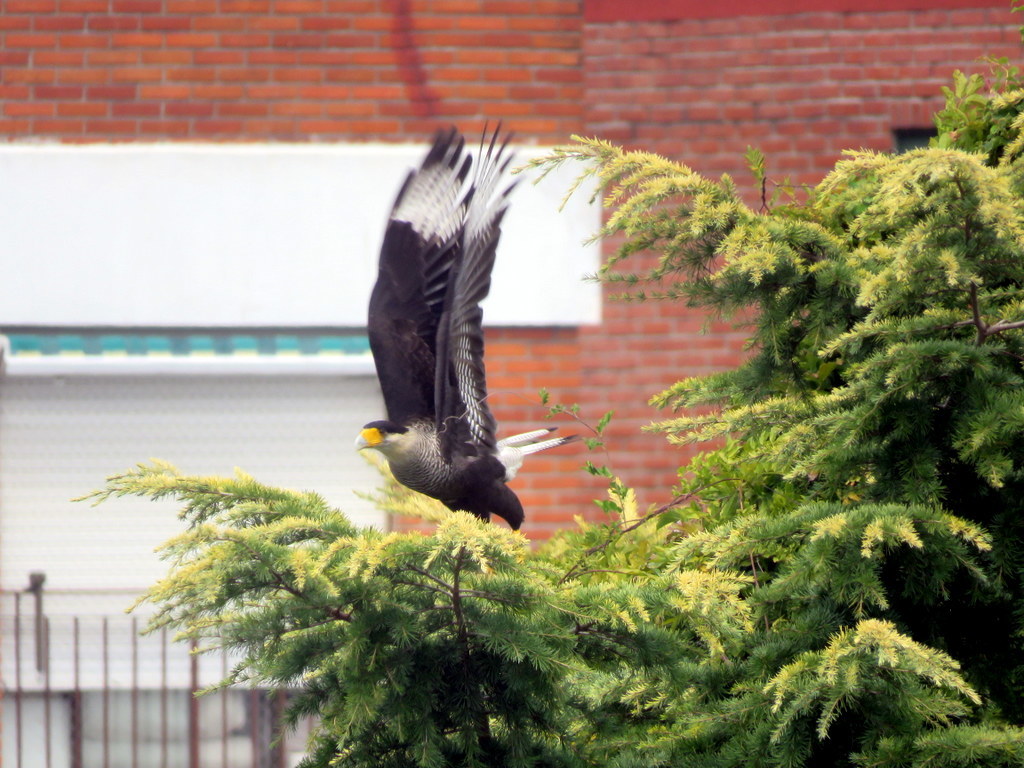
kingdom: Animalia
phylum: Chordata
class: Aves
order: Falconiformes
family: Falconidae
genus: Caracara
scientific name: Caracara plancus
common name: Southern caracara
